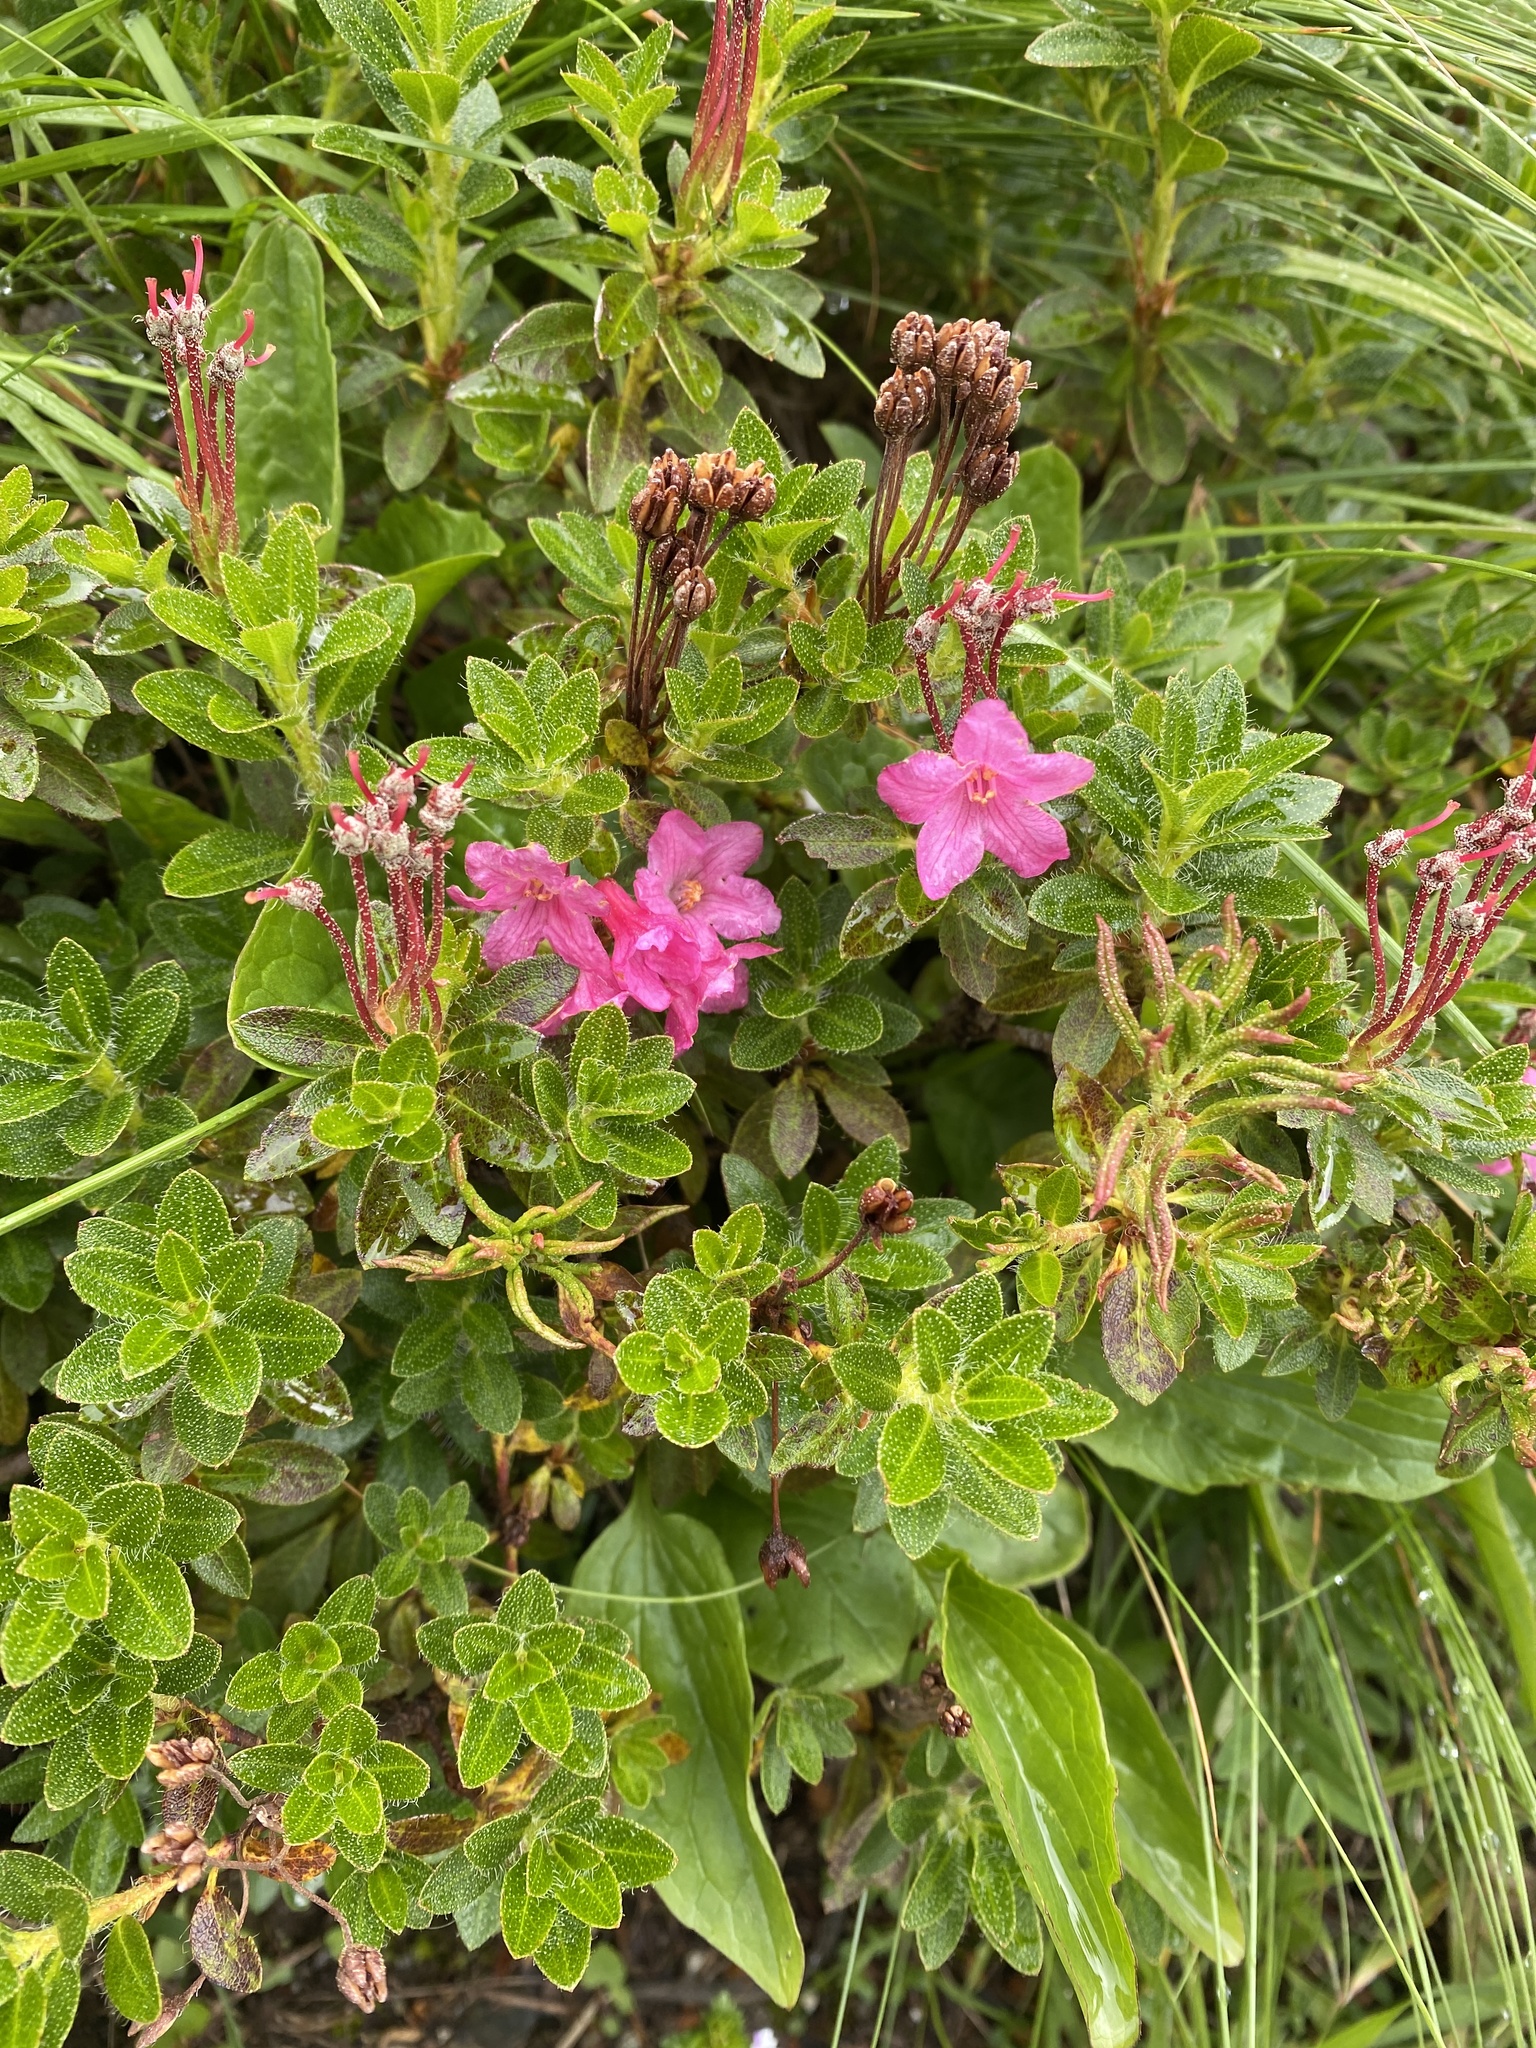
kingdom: Plantae
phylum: Tracheophyta
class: Magnoliopsida
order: Ericales
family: Ericaceae
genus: Rhododendron
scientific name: Rhododendron hirsutum
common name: Hairy alpenrose
